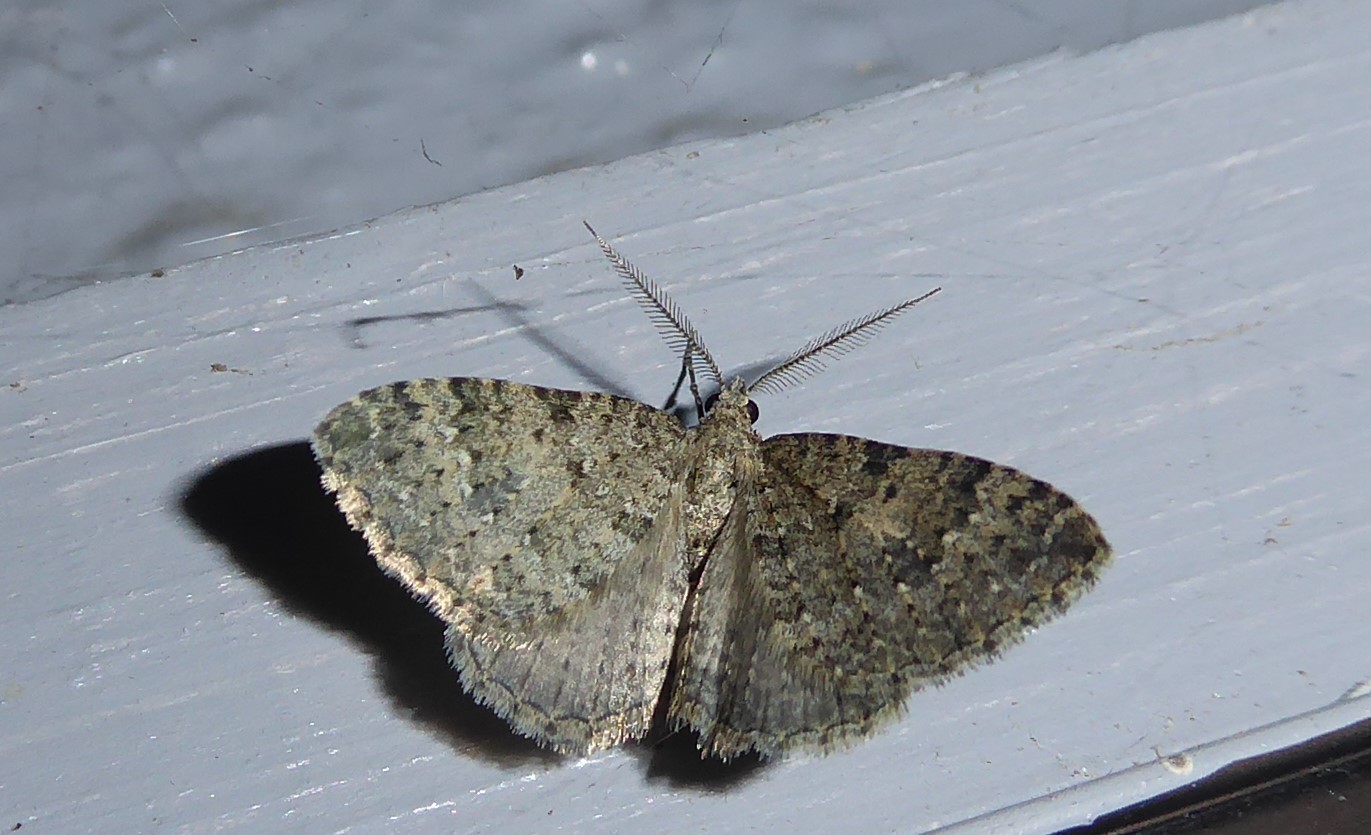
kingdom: Animalia
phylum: Arthropoda
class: Insecta
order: Lepidoptera
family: Geometridae
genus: Helastia
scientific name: Helastia corcularia
